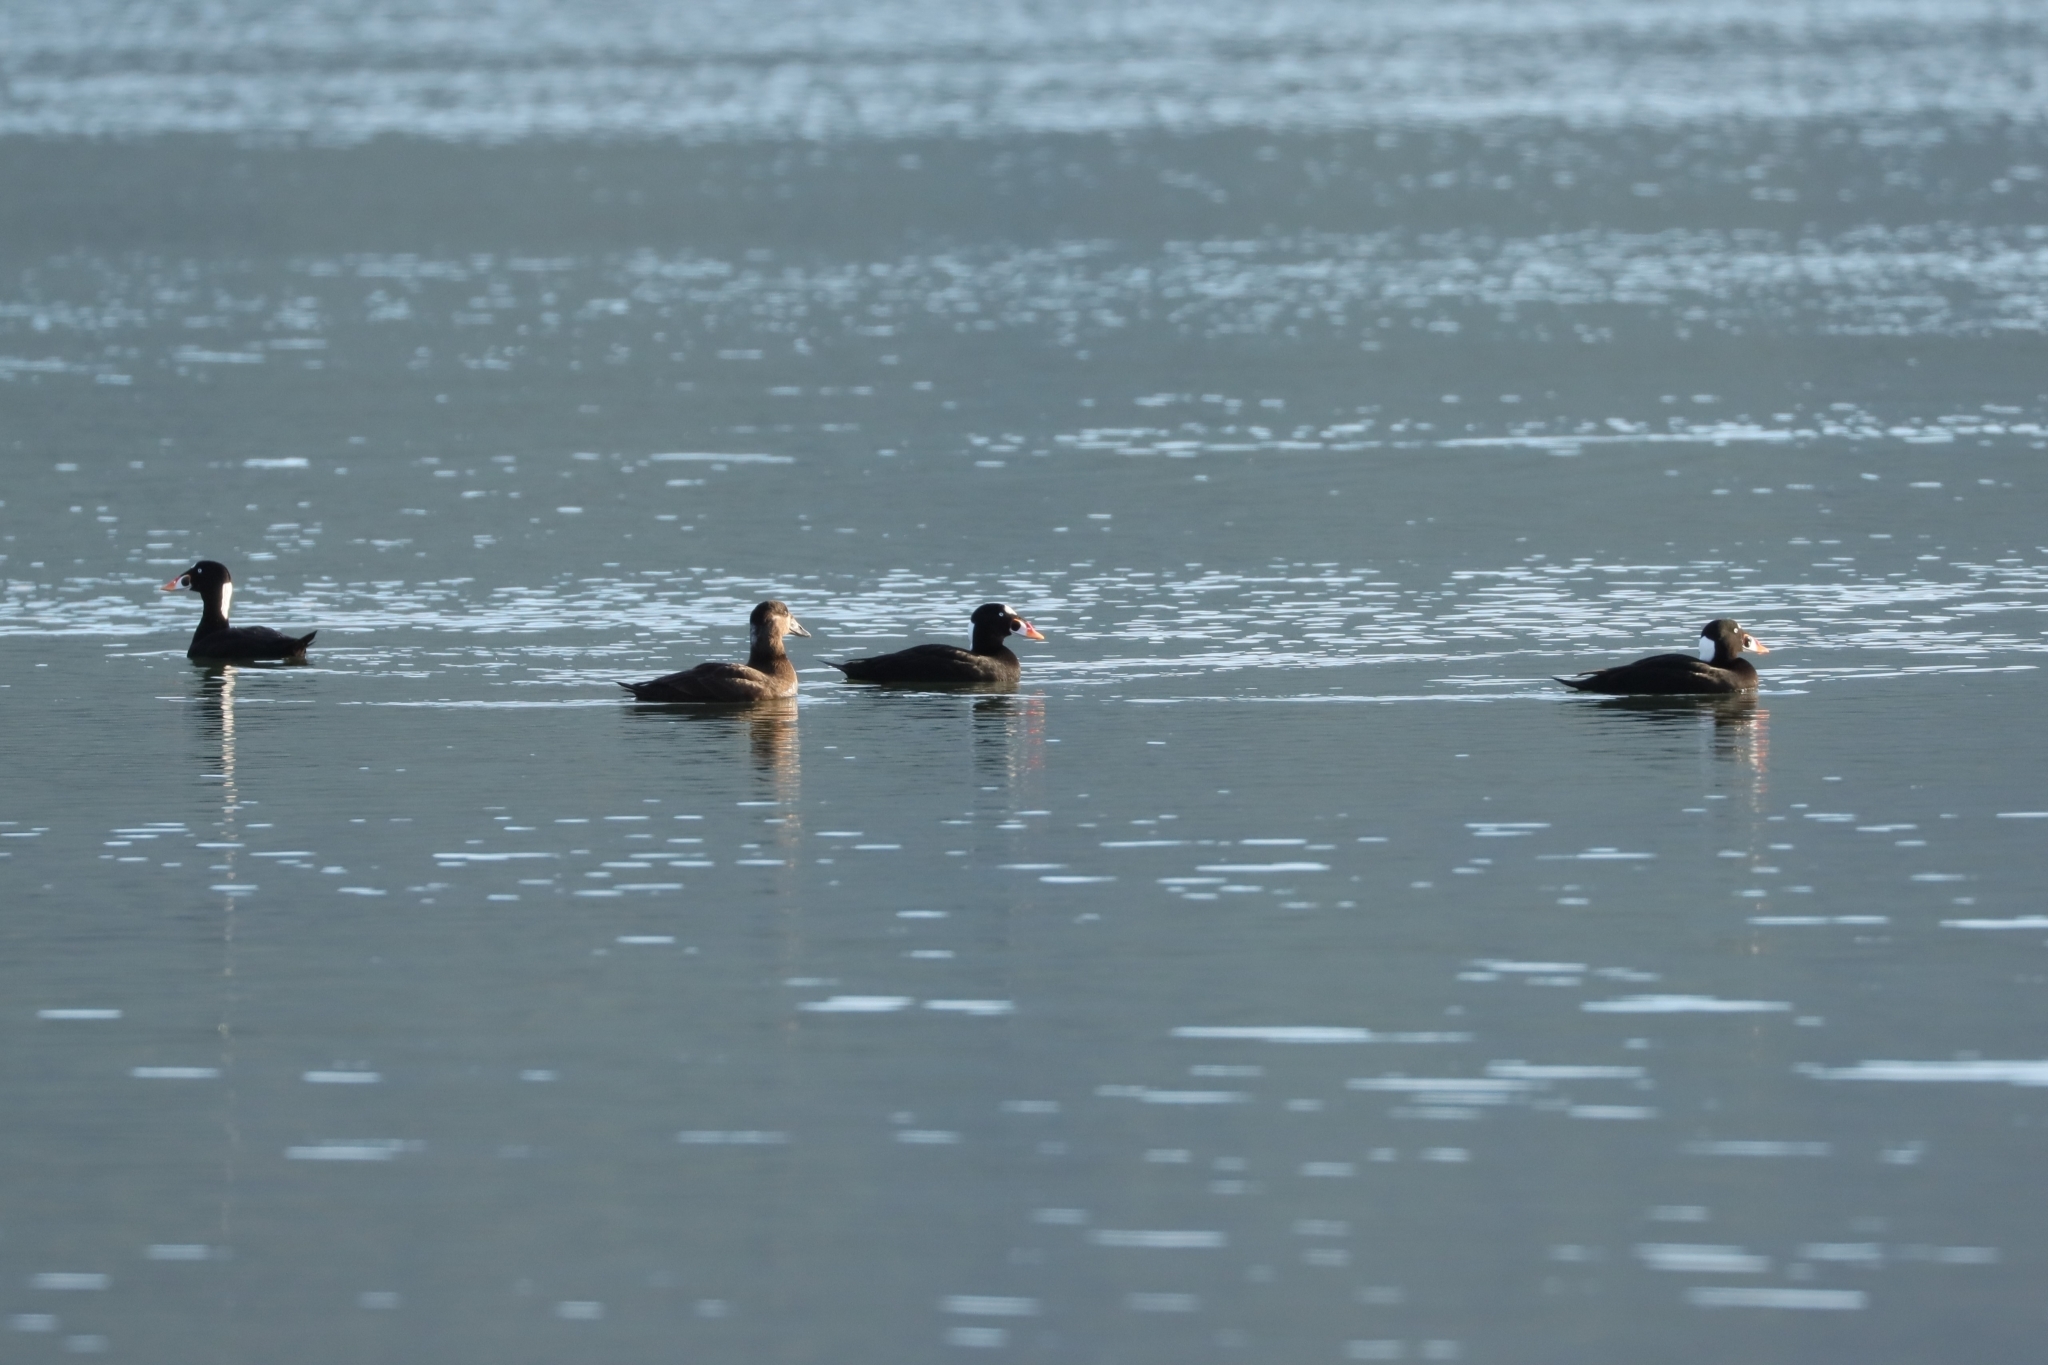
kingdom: Animalia
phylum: Chordata
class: Aves
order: Anseriformes
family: Anatidae
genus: Melanitta
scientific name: Melanitta perspicillata
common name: Surf scoter
